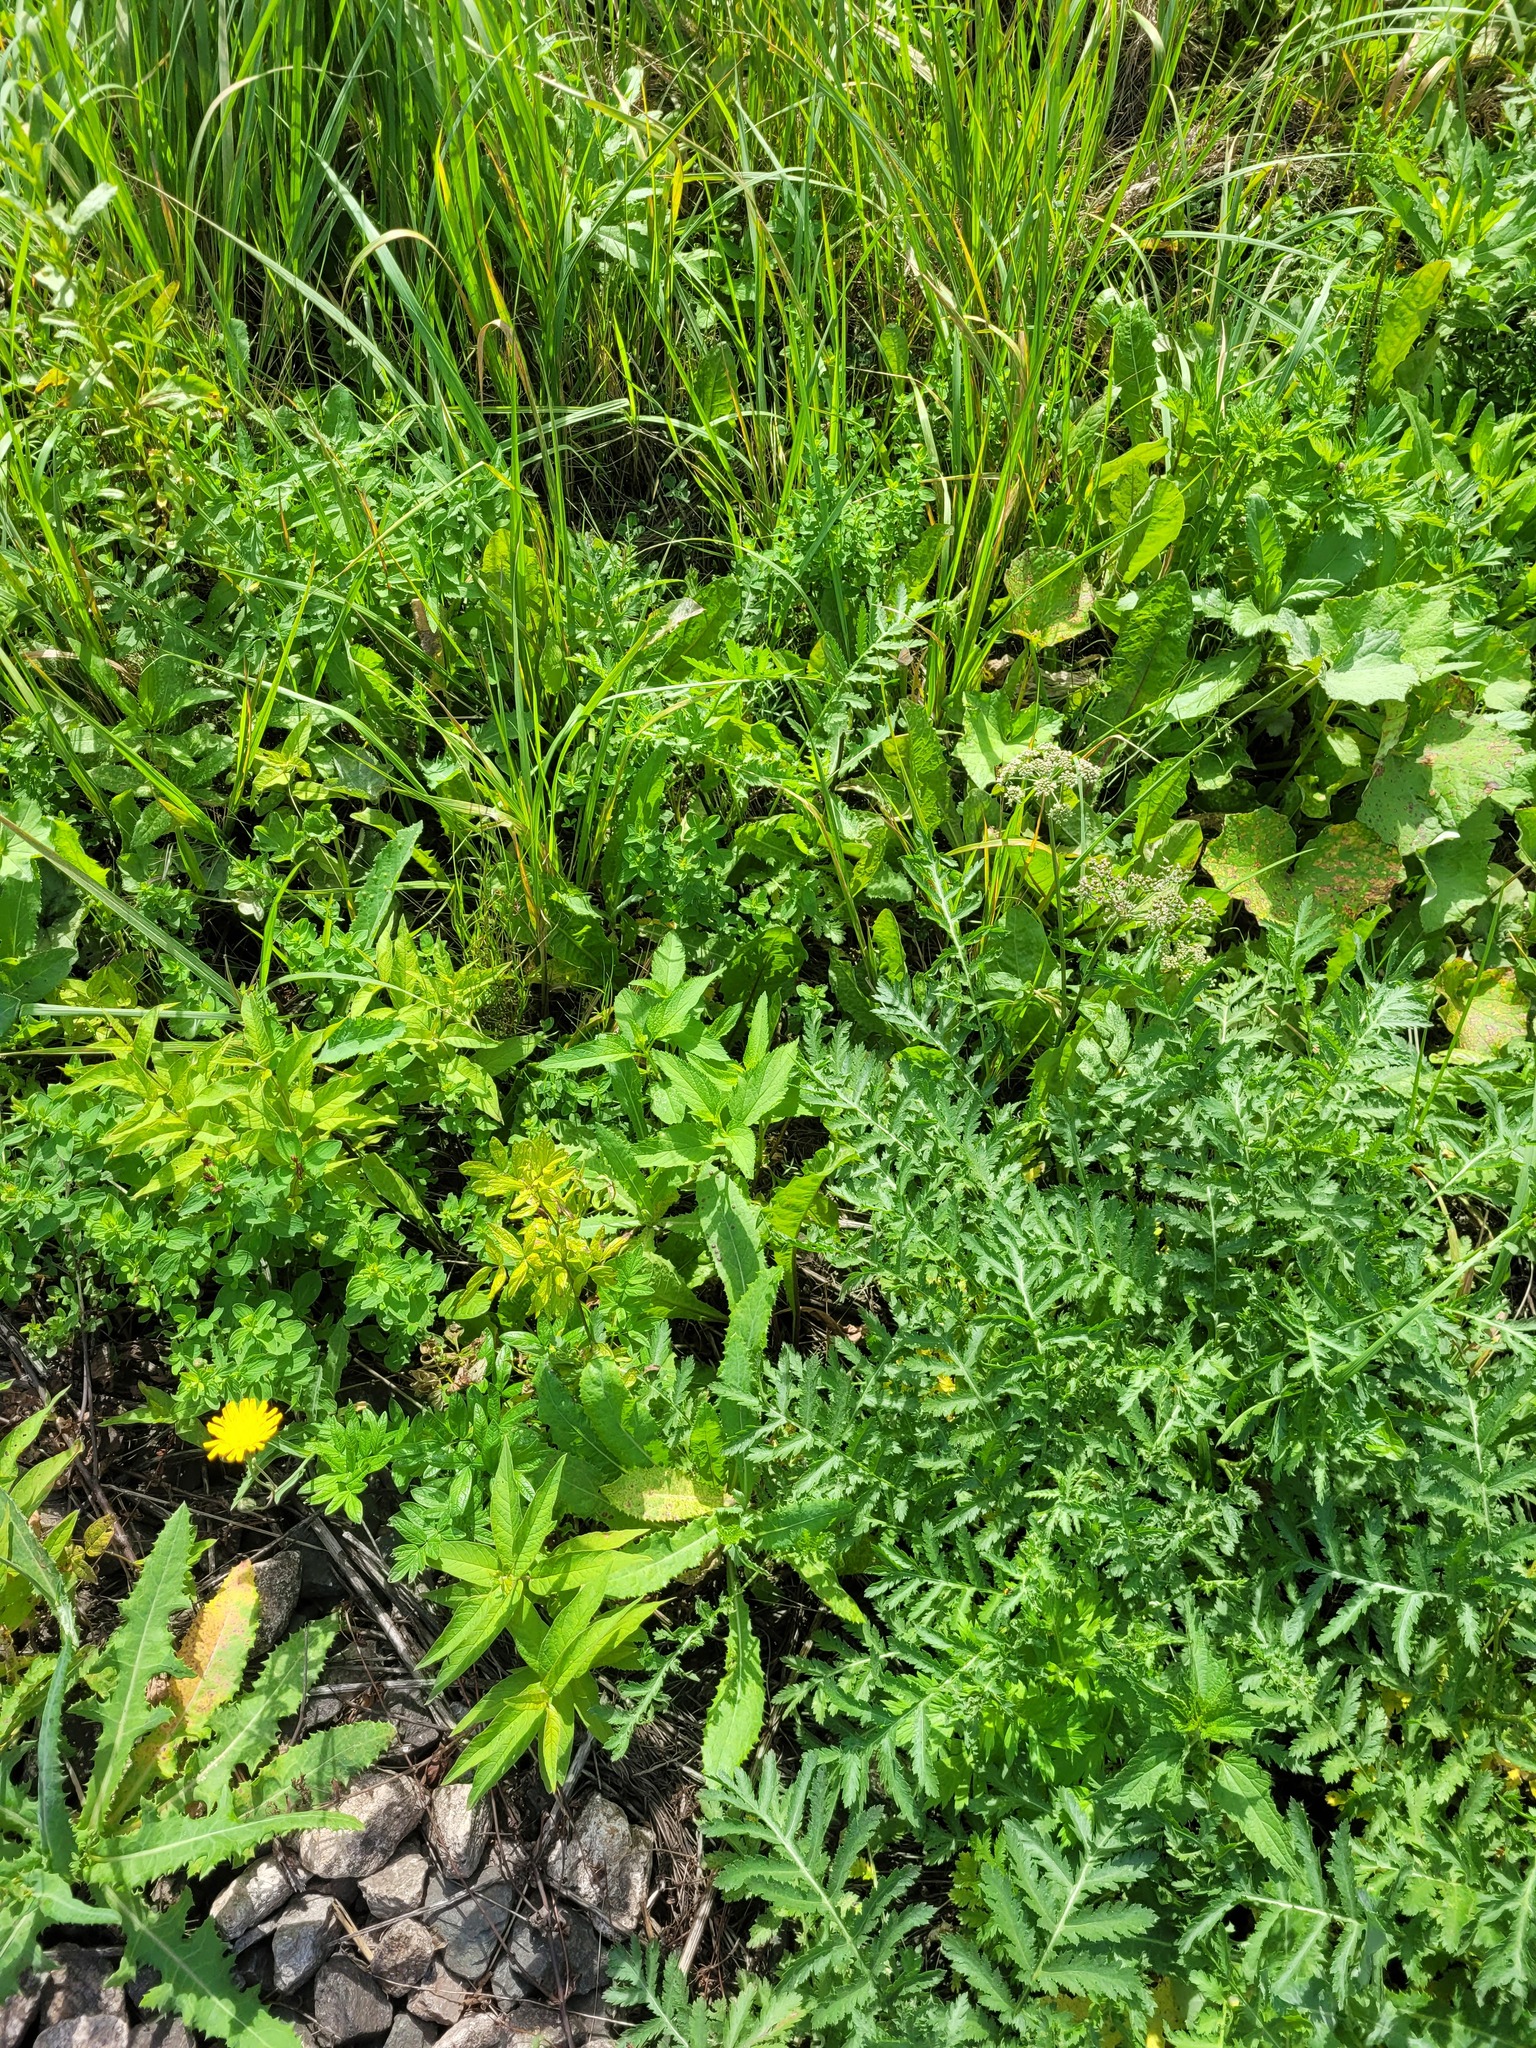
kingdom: Plantae
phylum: Tracheophyta
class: Magnoliopsida
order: Lamiales
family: Scrophulariaceae
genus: Scrophularia
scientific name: Scrophularia nodosa
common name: Common figwort
